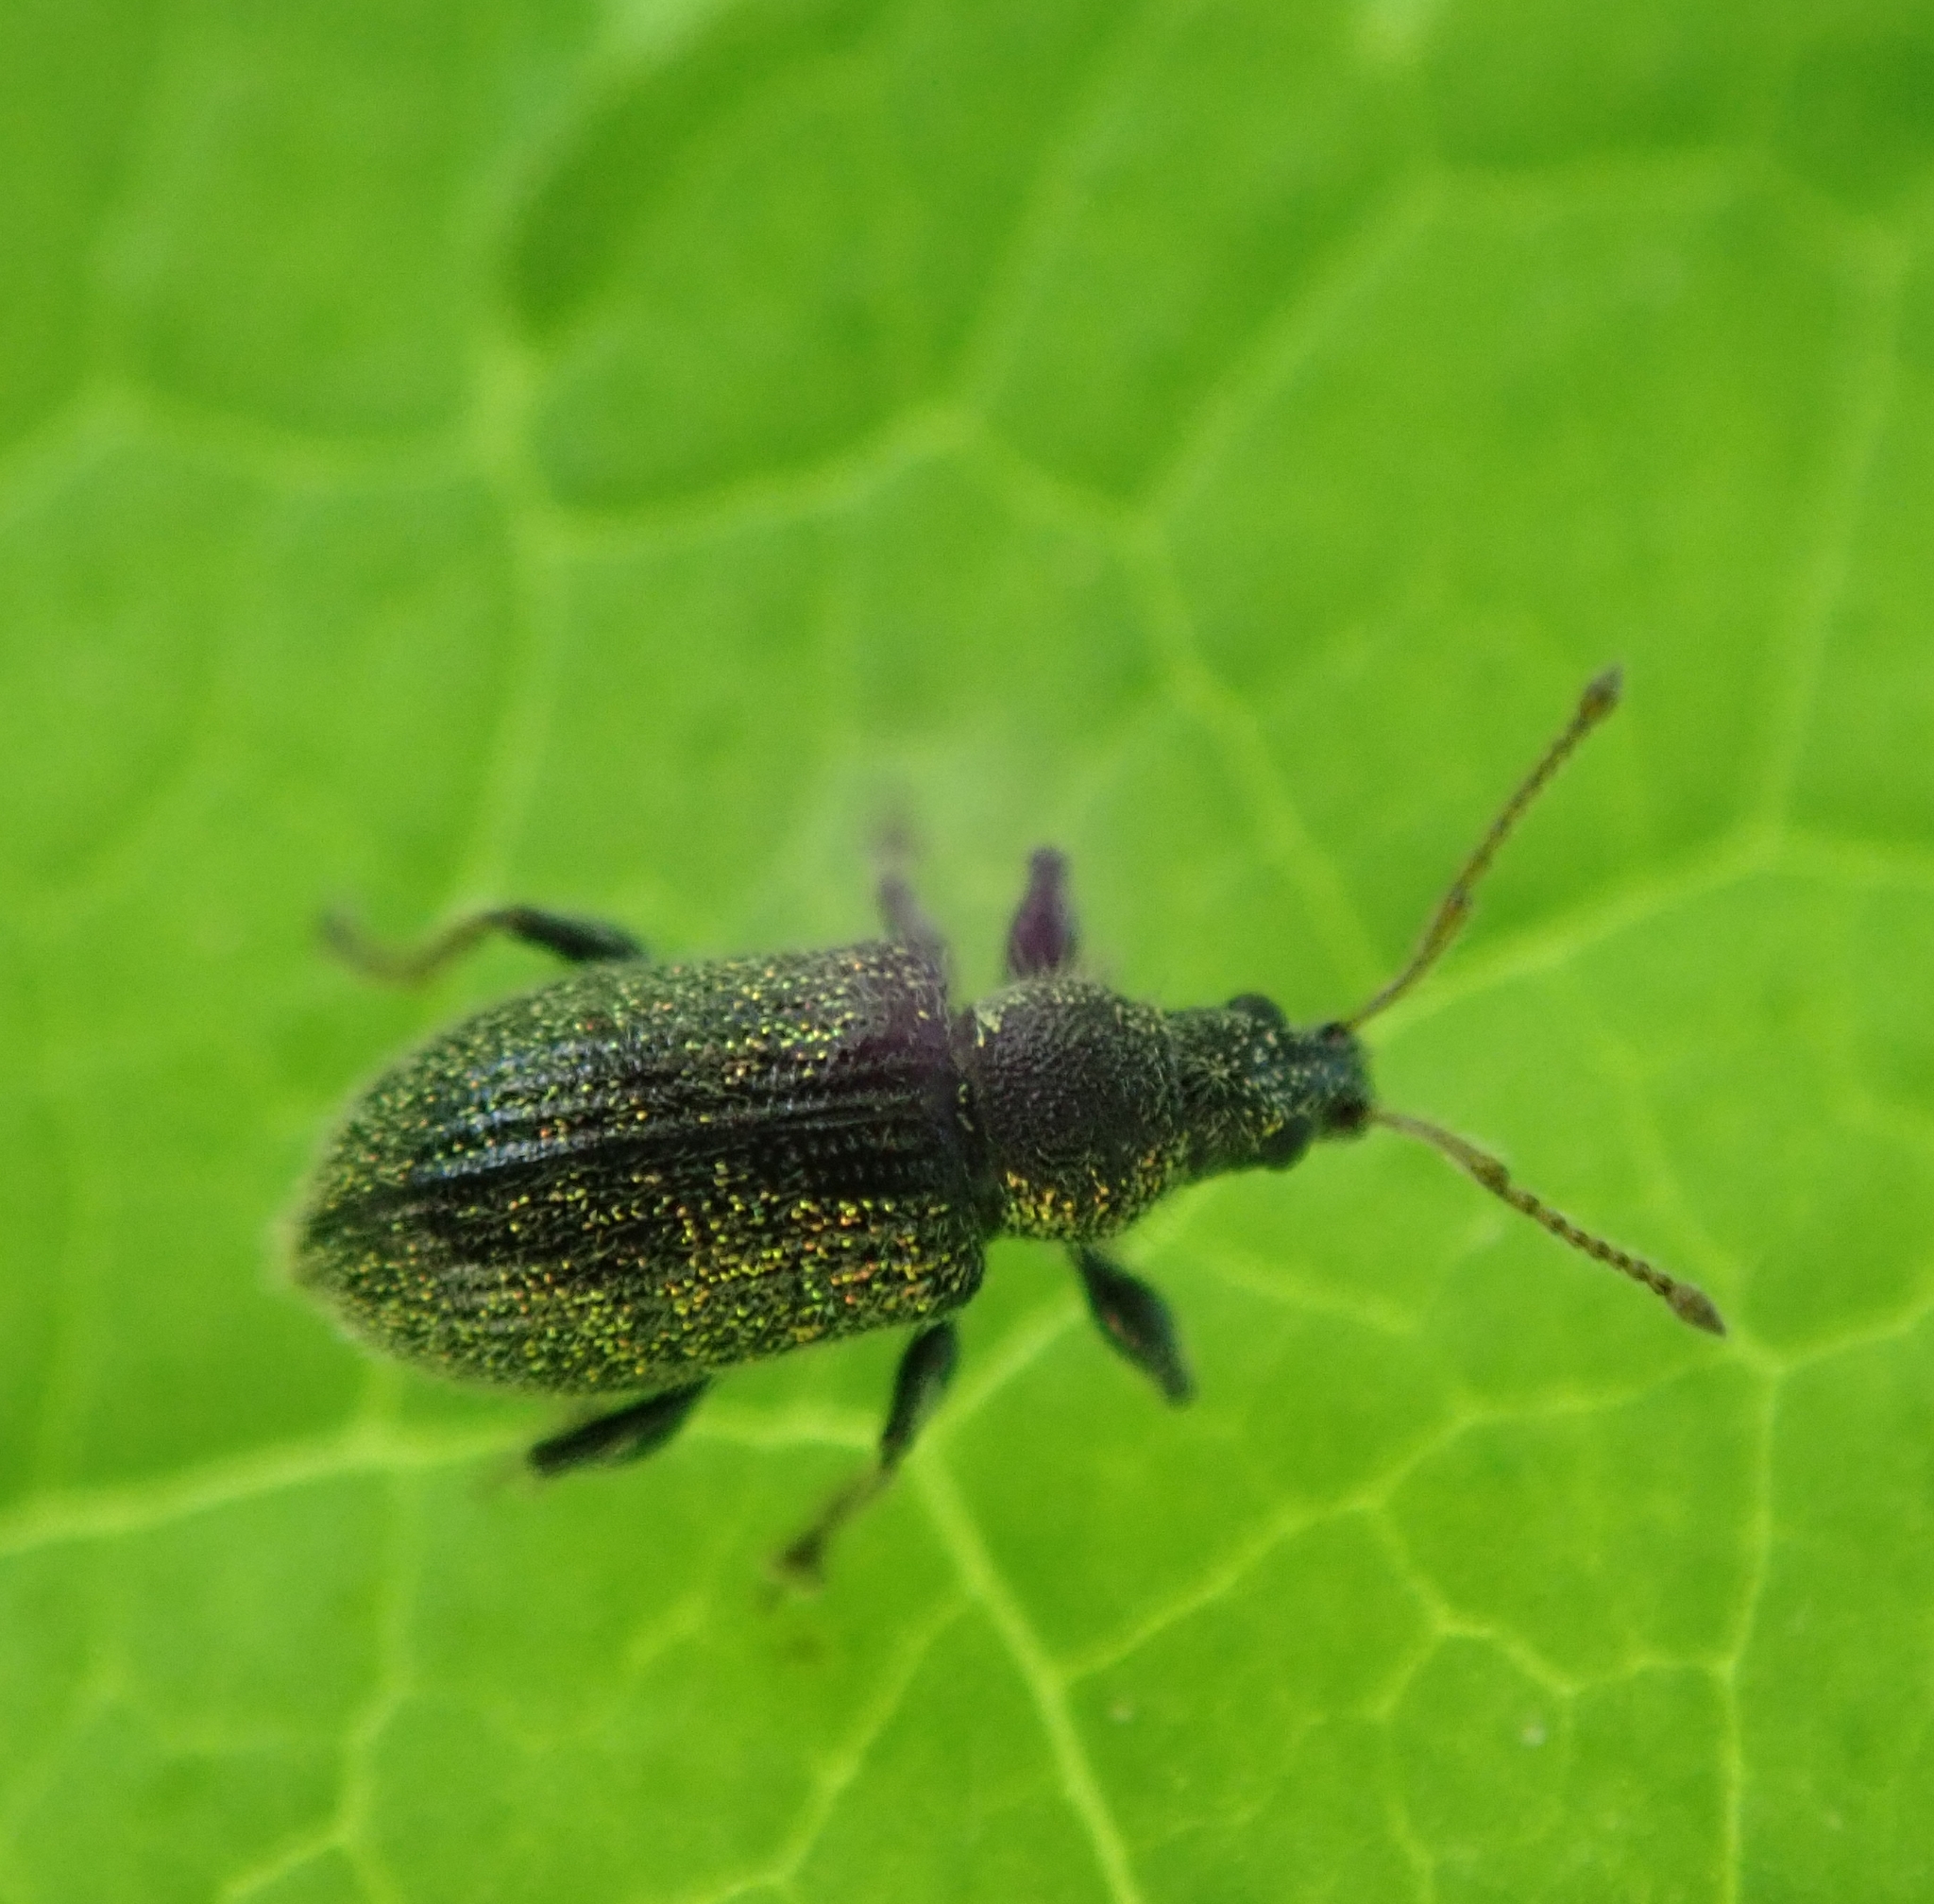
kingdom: Animalia
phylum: Arthropoda
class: Insecta
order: Coleoptera
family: Curculionidae
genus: Phyllobius
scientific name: Phyllobius betulinus
